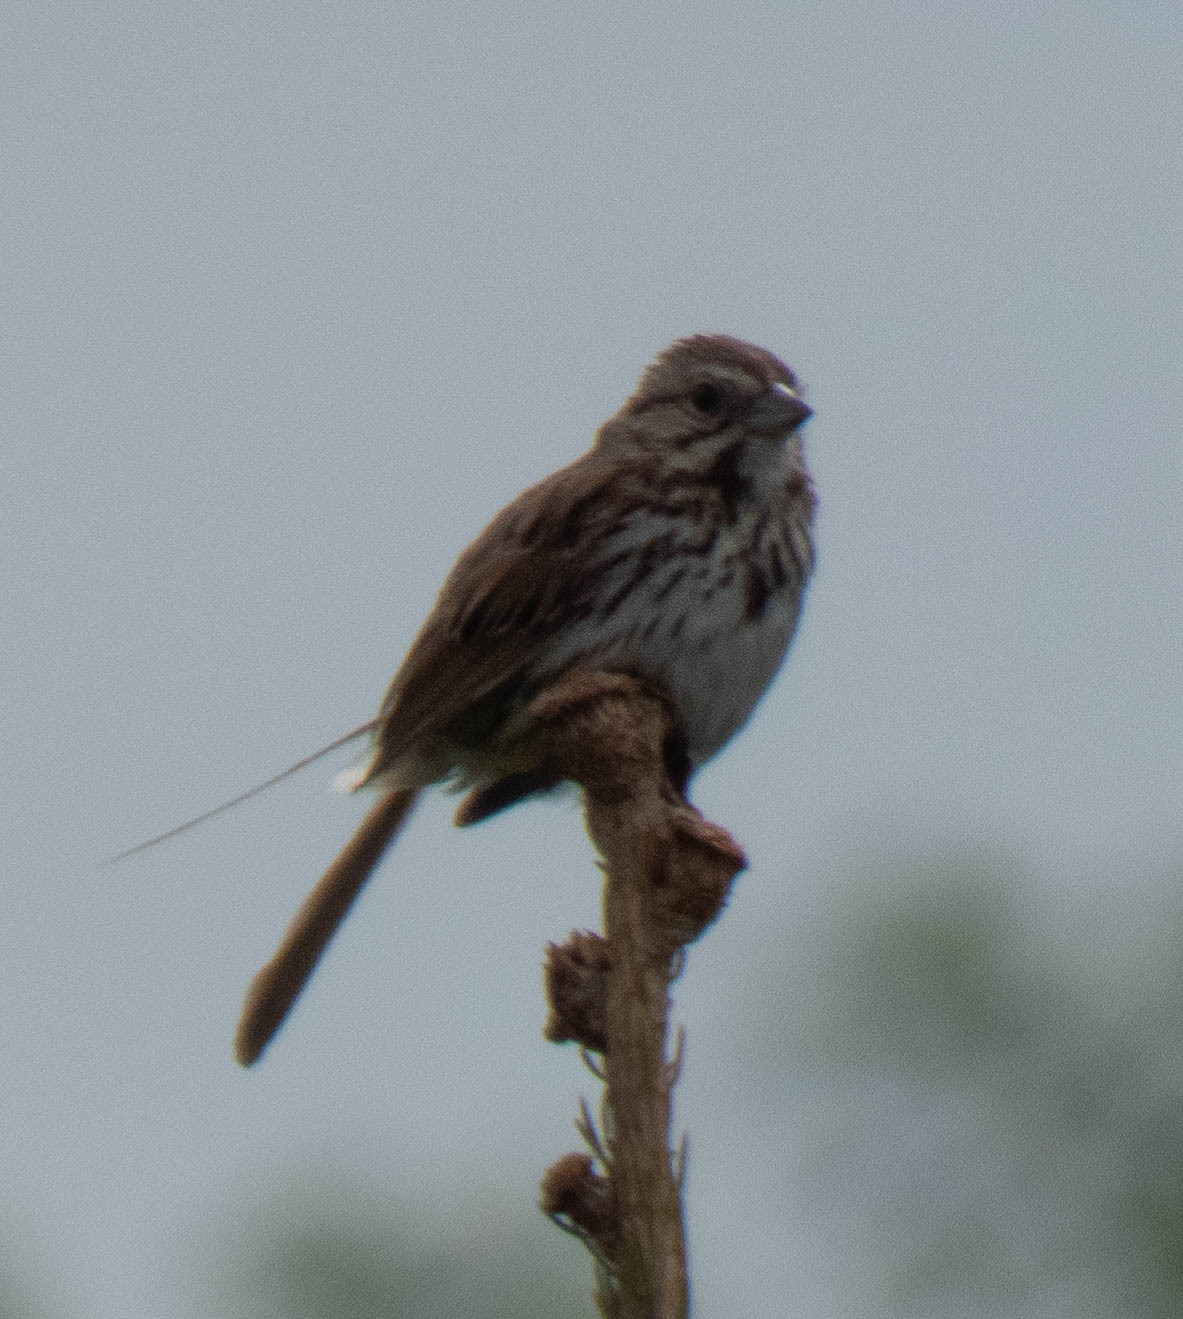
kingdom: Animalia
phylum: Chordata
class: Aves
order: Passeriformes
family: Passerellidae
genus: Melospiza
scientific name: Melospiza melodia
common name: Song sparrow
